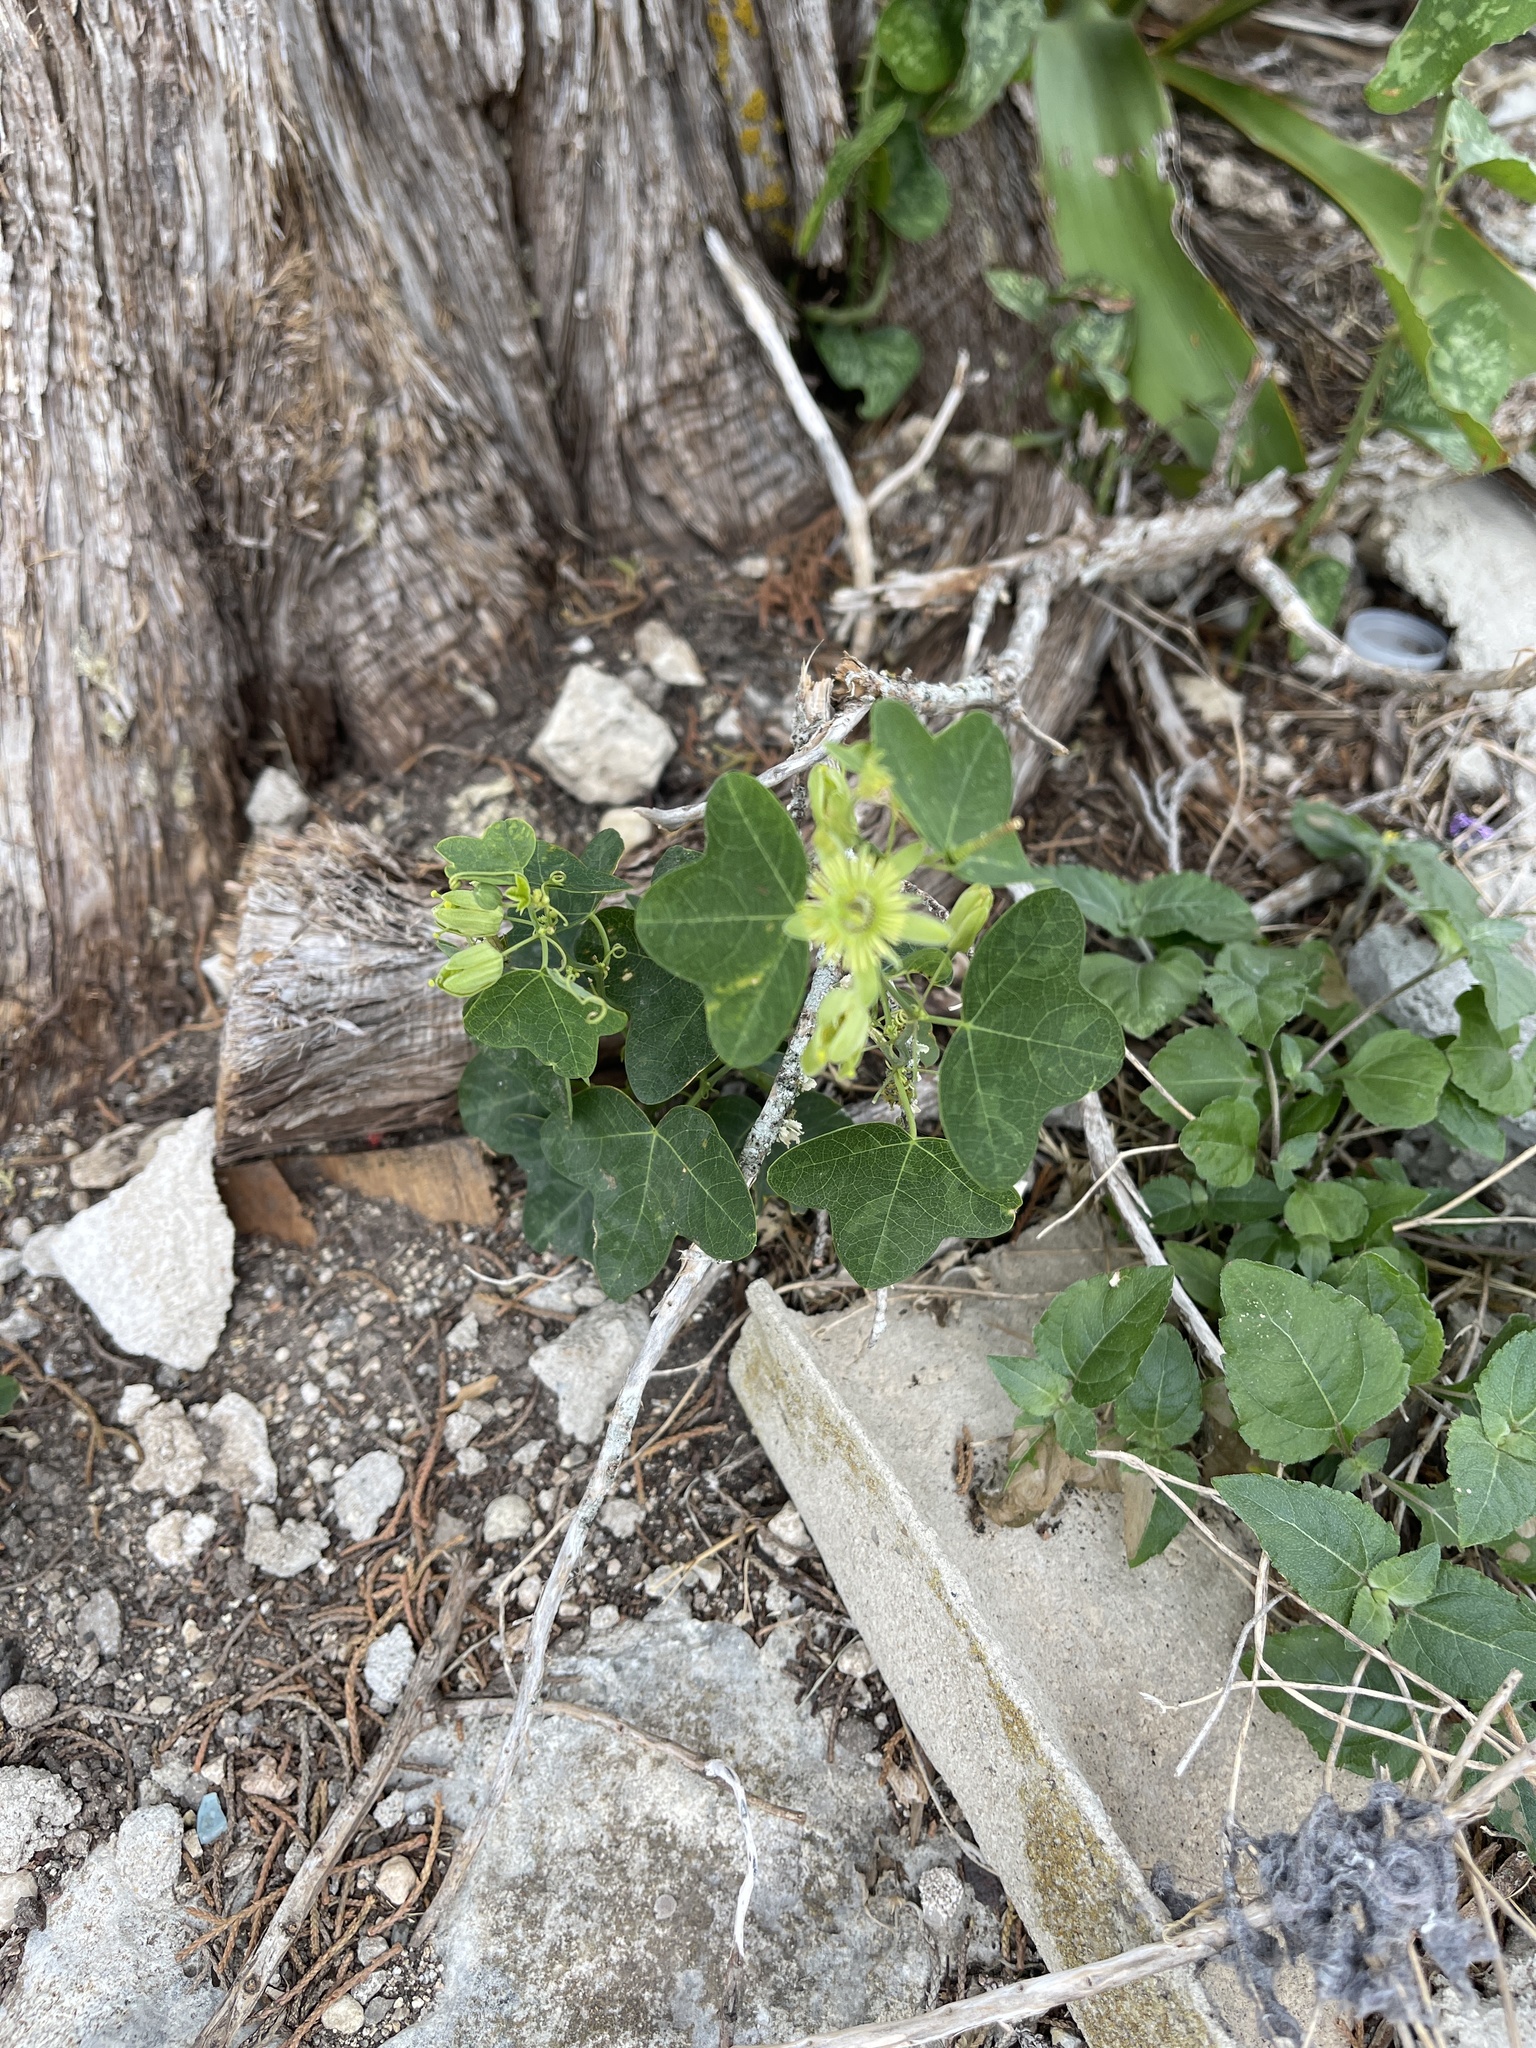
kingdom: Plantae
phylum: Tracheophyta
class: Magnoliopsida
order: Malpighiales
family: Passifloraceae
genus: Passiflora
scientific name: Passiflora lutea
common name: Yellow passionflower
